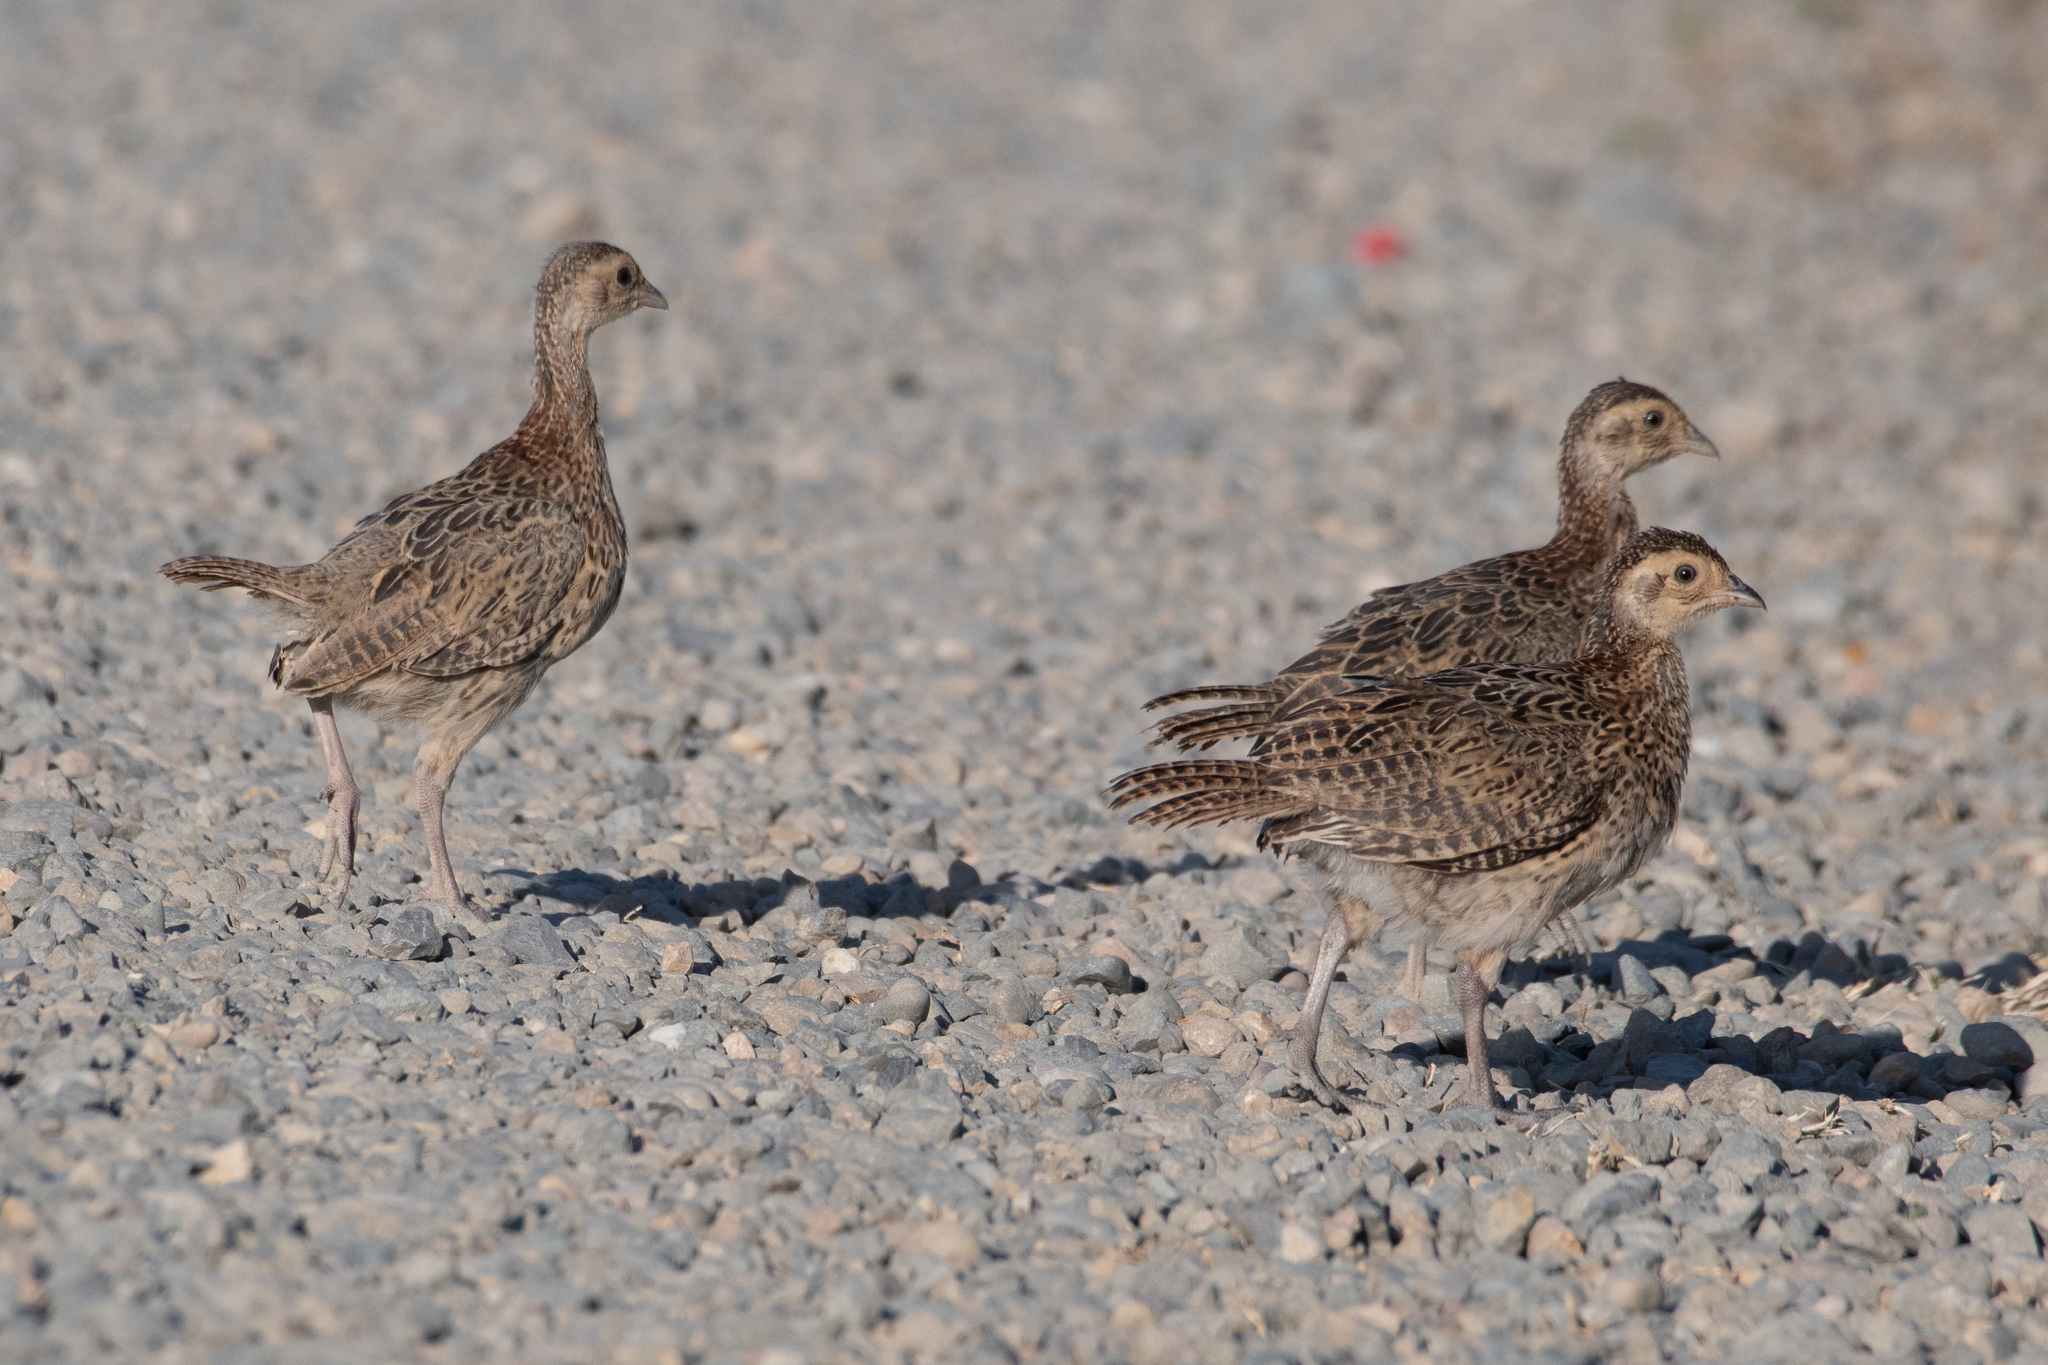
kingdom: Animalia
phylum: Chordata
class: Aves
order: Galliformes
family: Phasianidae
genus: Phasianus
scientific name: Phasianus colchicus
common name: Common pheasant
